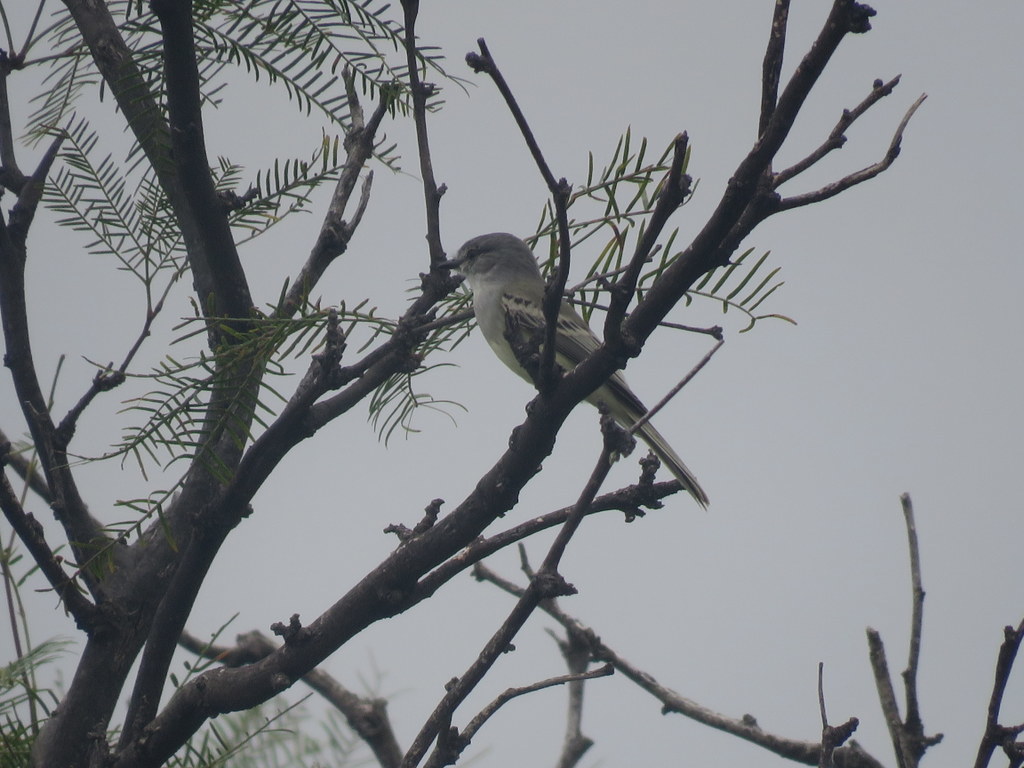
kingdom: Animalia
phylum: Chordata
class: Aves
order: Passeriformes
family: Tyrannidae
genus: Suiriri
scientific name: Suiriri suiriri
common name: Suiriri flycatcher
